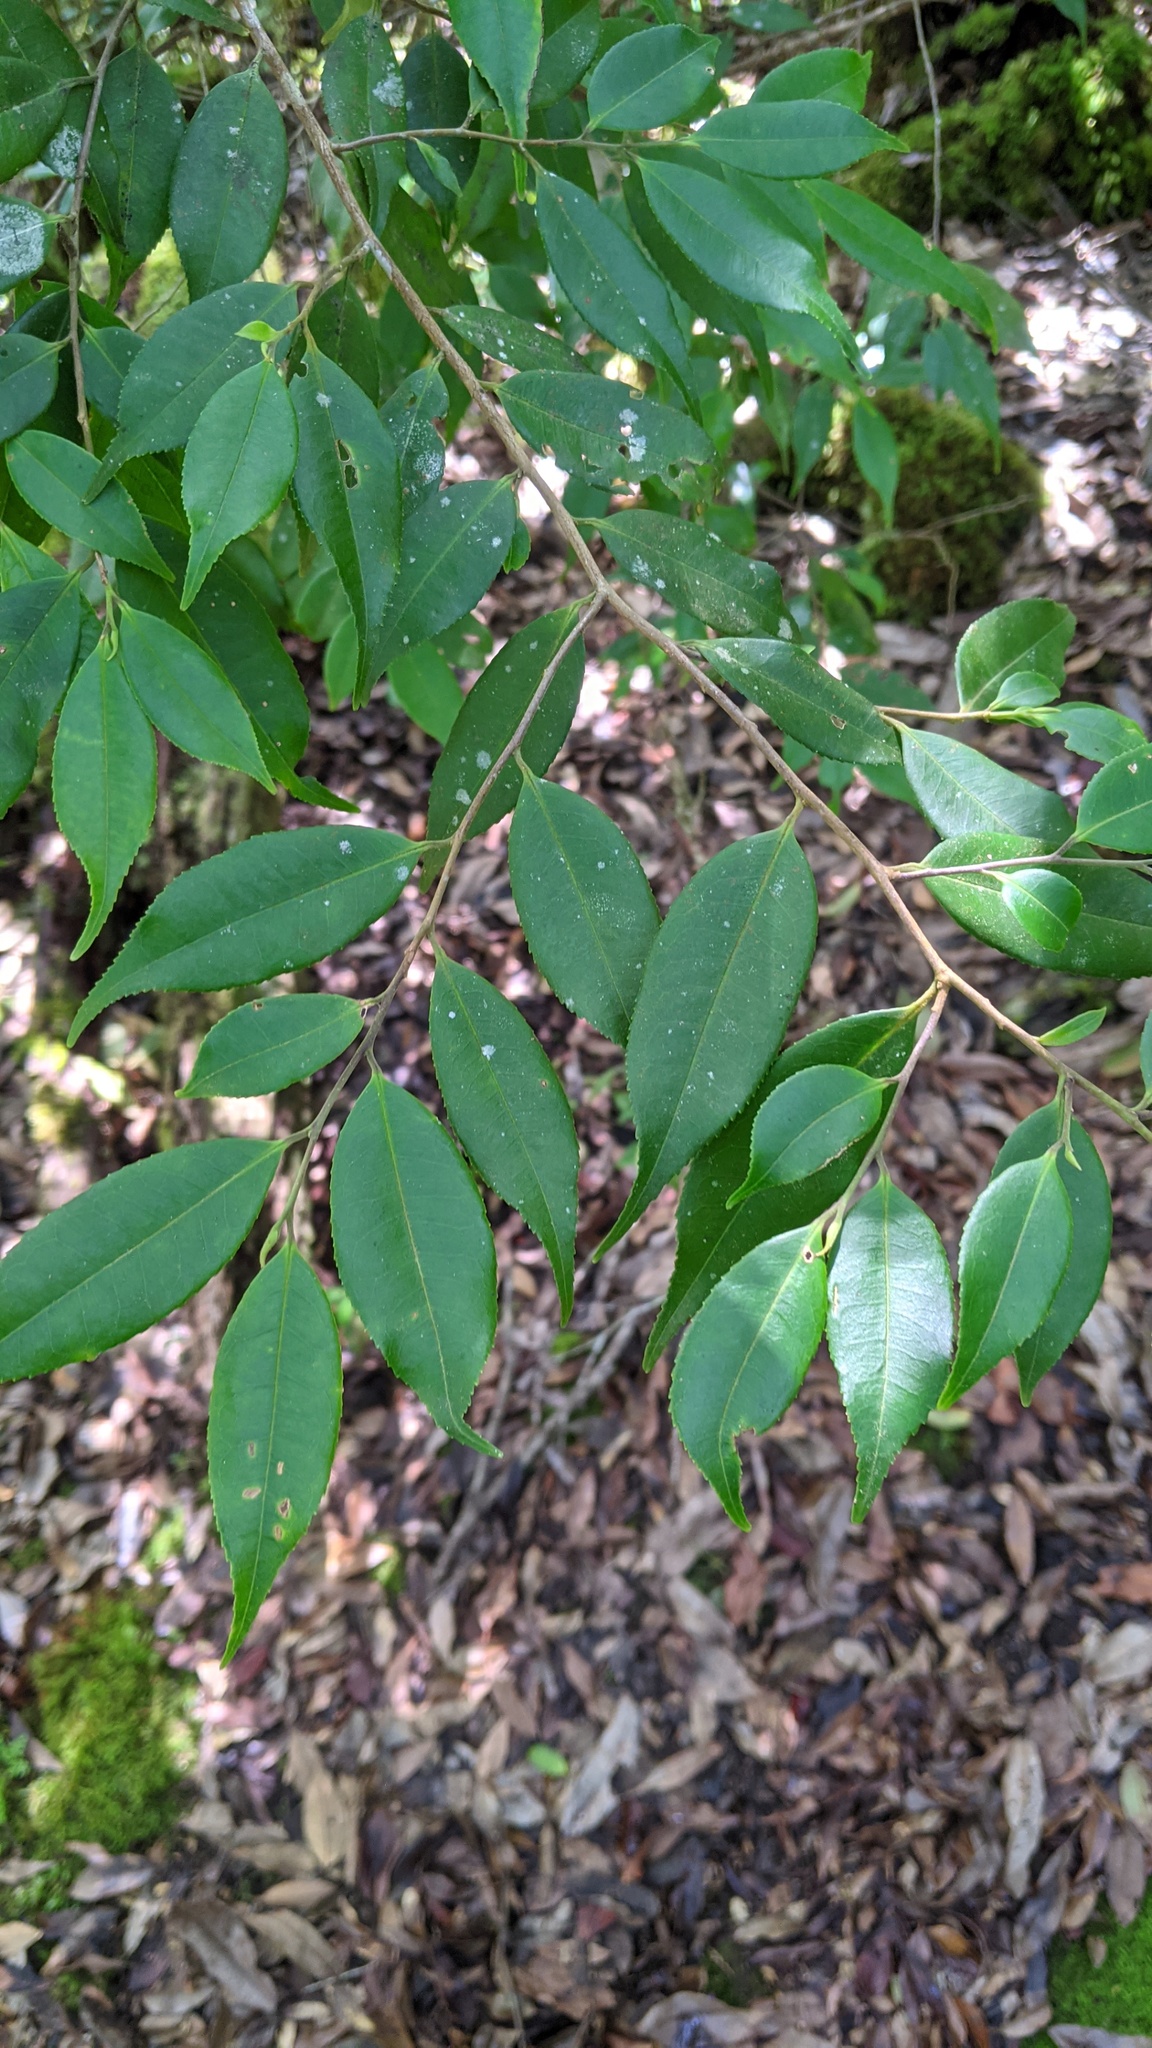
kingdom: Plantae
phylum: Tracheophyta
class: Magnoliopsida
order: Ericales
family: Pentaphylacaceae
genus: Eurya
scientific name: Eurya loquaiana
